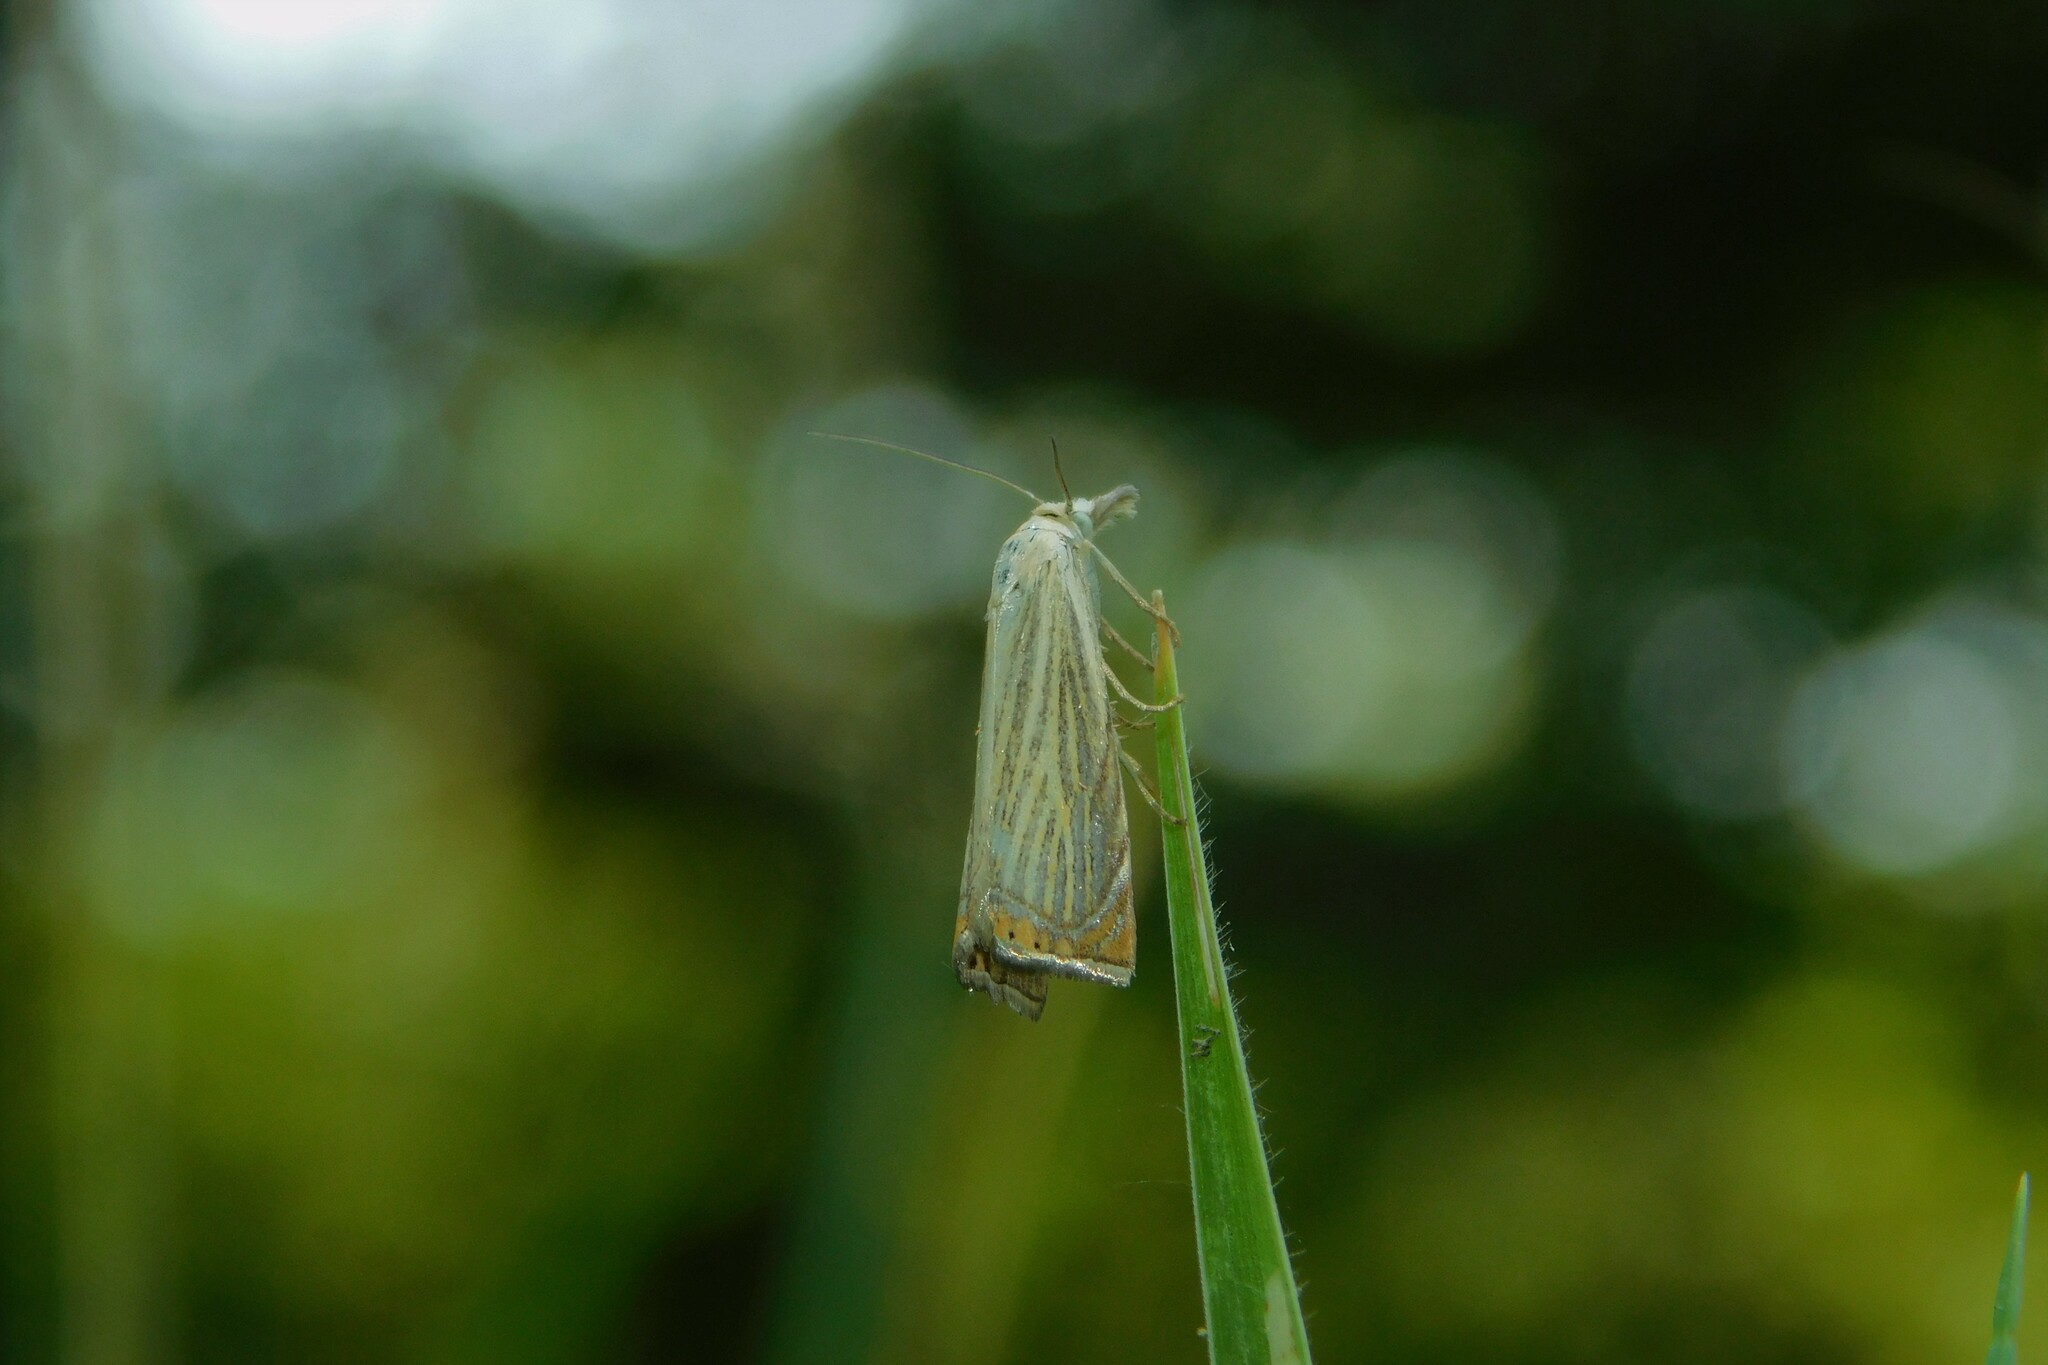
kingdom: Animalia
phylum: Arthropoda
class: Insecta
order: Lepidoptera
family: Crambidae
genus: Chrysoteuchia
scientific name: Chrysoteuchia culmella
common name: Garden grass-veneer
